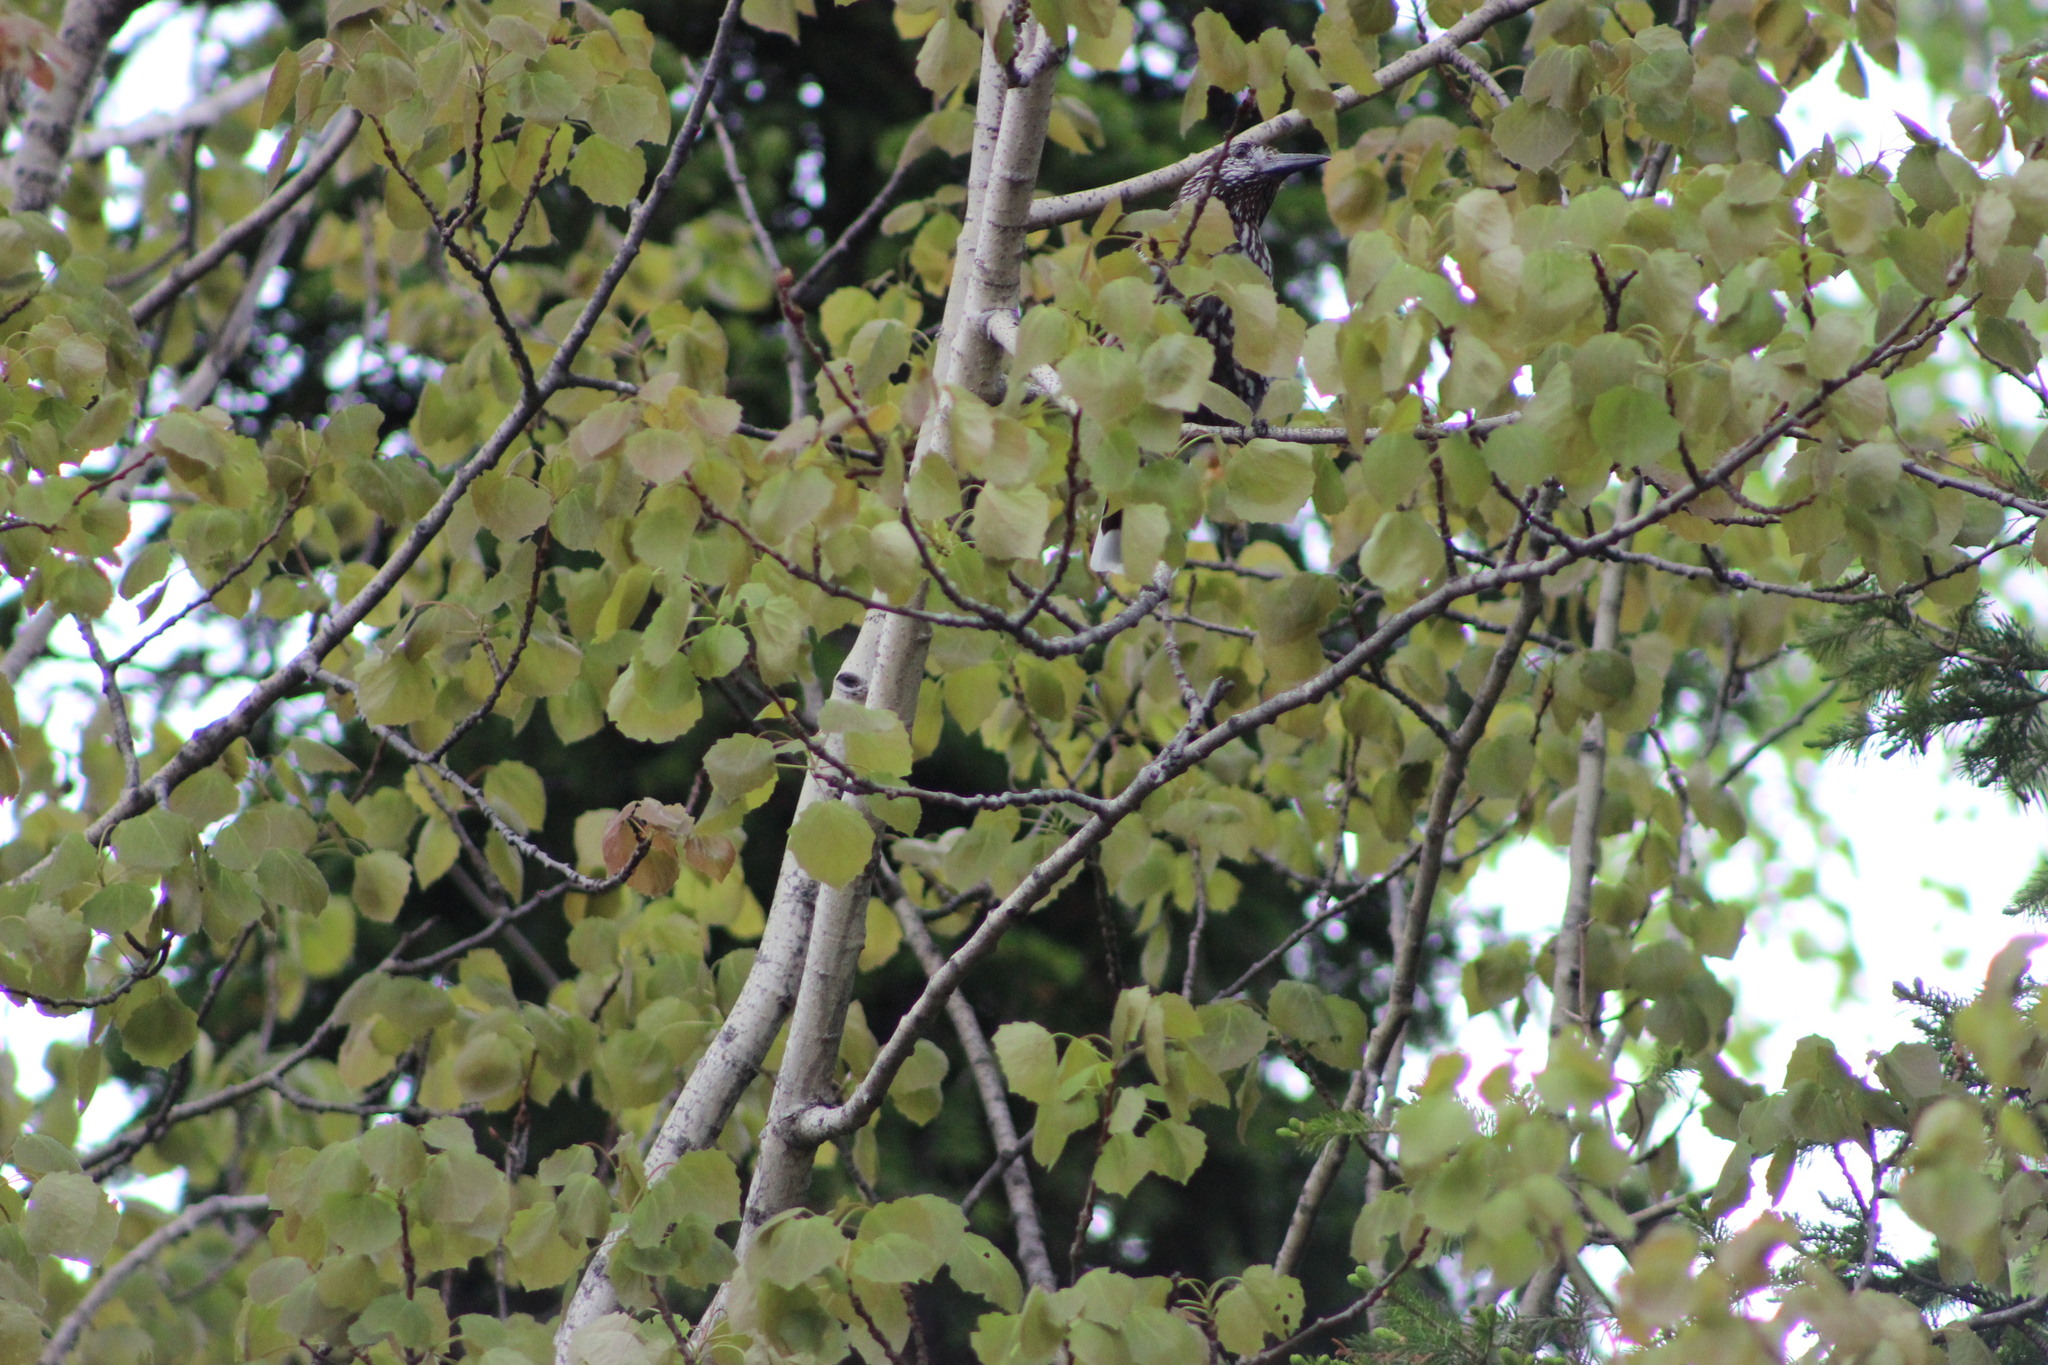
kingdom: Plantae
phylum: Tracheophyta
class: Magnoliopsida
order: Malpighiales
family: Salicaceae
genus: Populus
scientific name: Populus tremula
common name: European aspen
